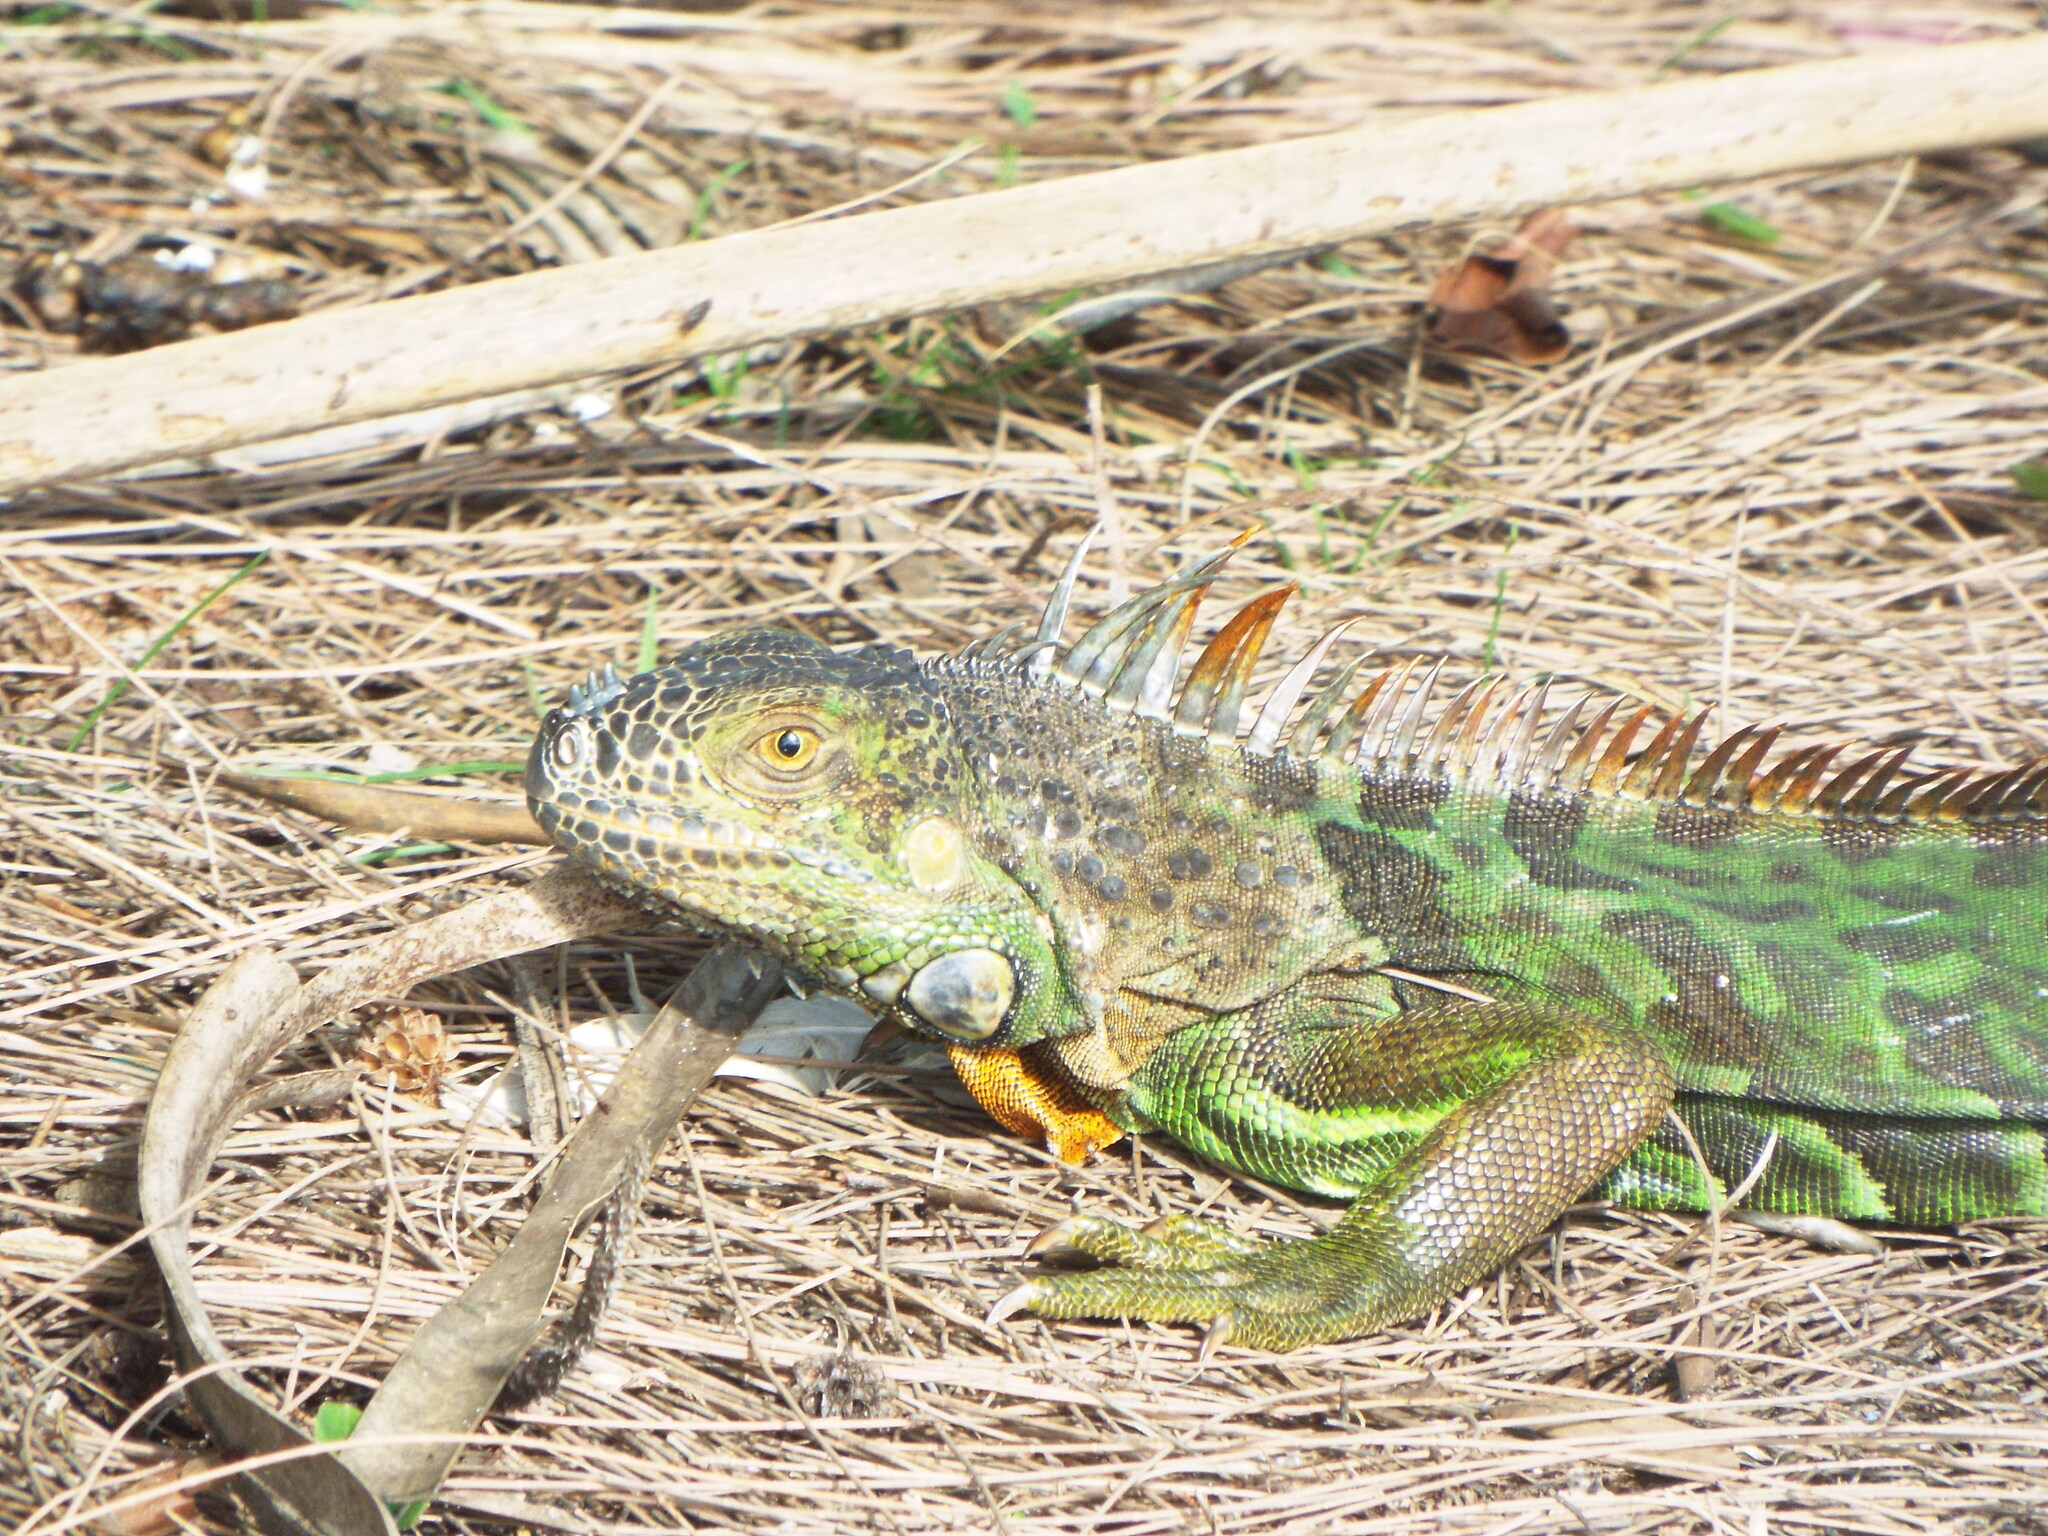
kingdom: Animalia
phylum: Chordata
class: Squamata
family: Iguanidae
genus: Iguana
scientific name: Iguana iguana
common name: Green iguana
